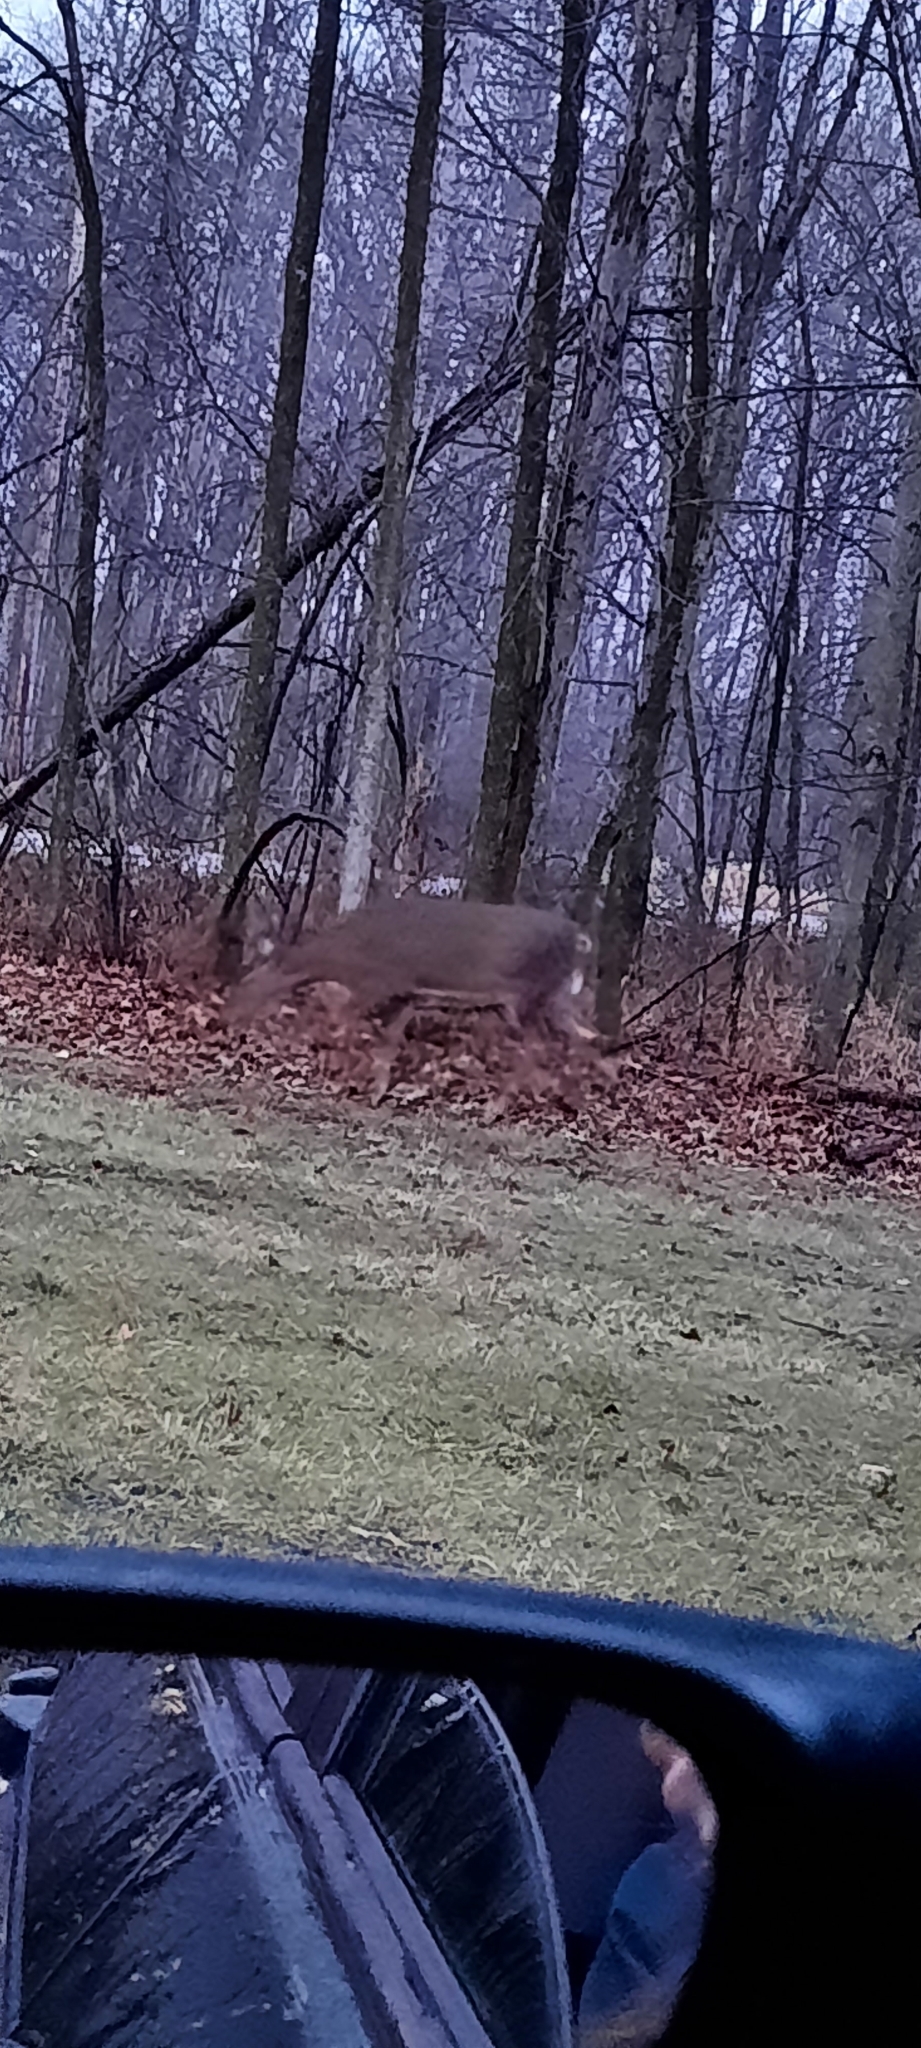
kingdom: Animalia
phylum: Chordata
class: Mammalia
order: Artiodactyla
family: Cervidae
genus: Odocoileus
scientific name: Odocoileus virginianus
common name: White-tailed deer
